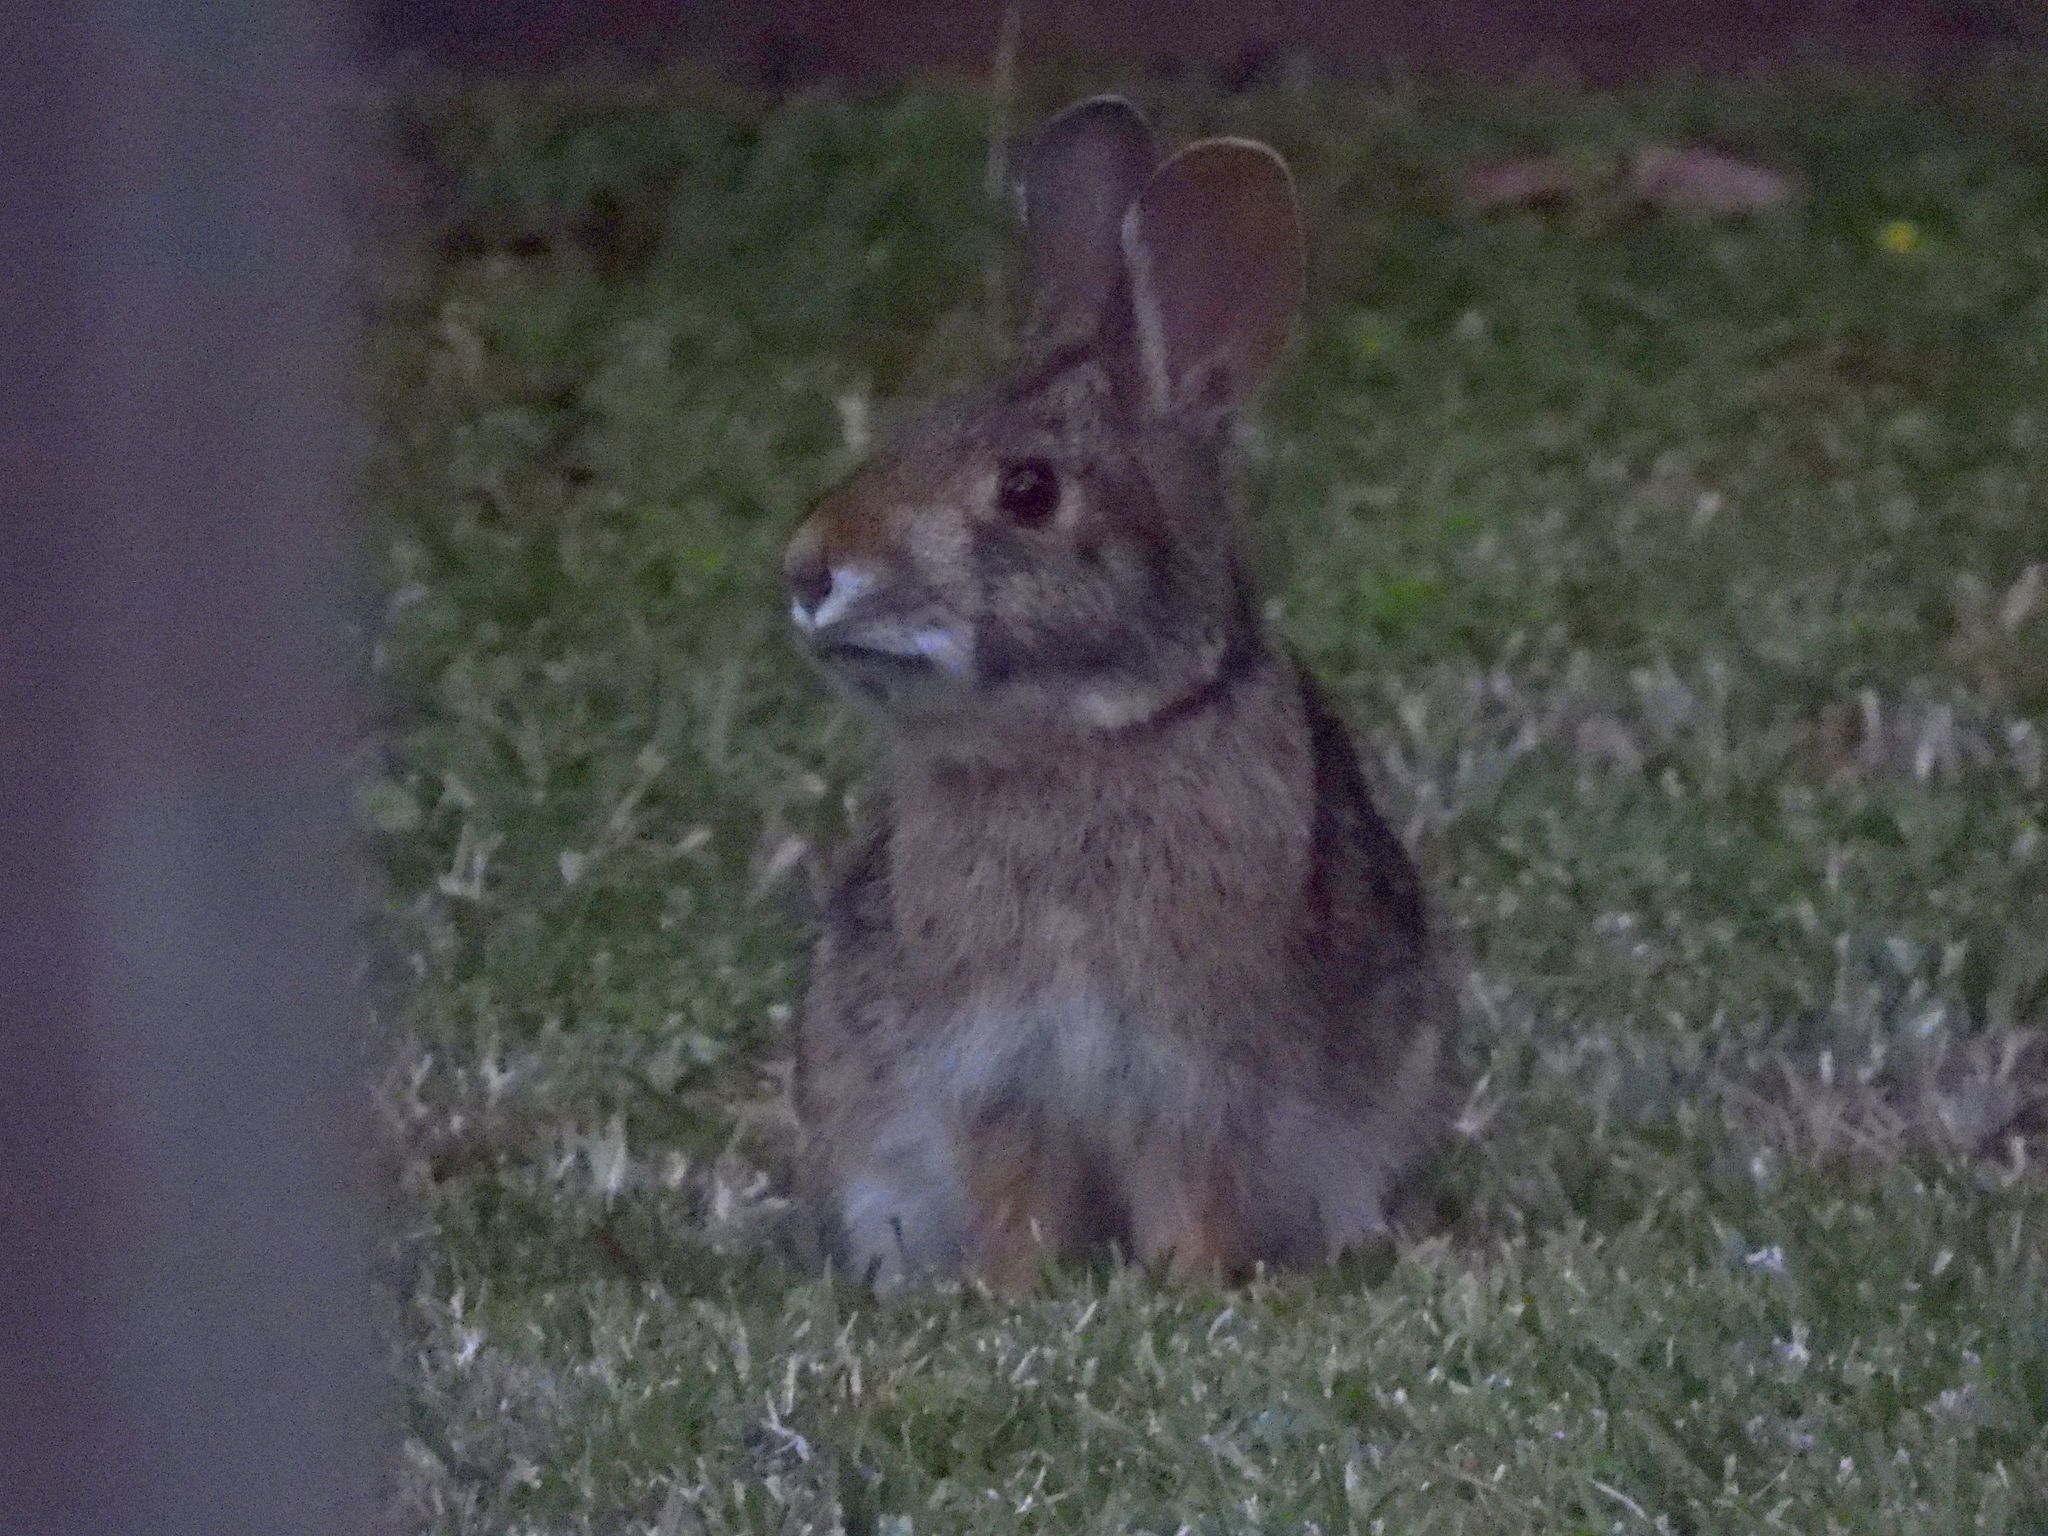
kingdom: Animalia
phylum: Chordata
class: Mammalia
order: Lagomorpha
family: Leporidae
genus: Sylvilagus
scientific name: Sylvilagus aquaticus
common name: Swamp rabbit
